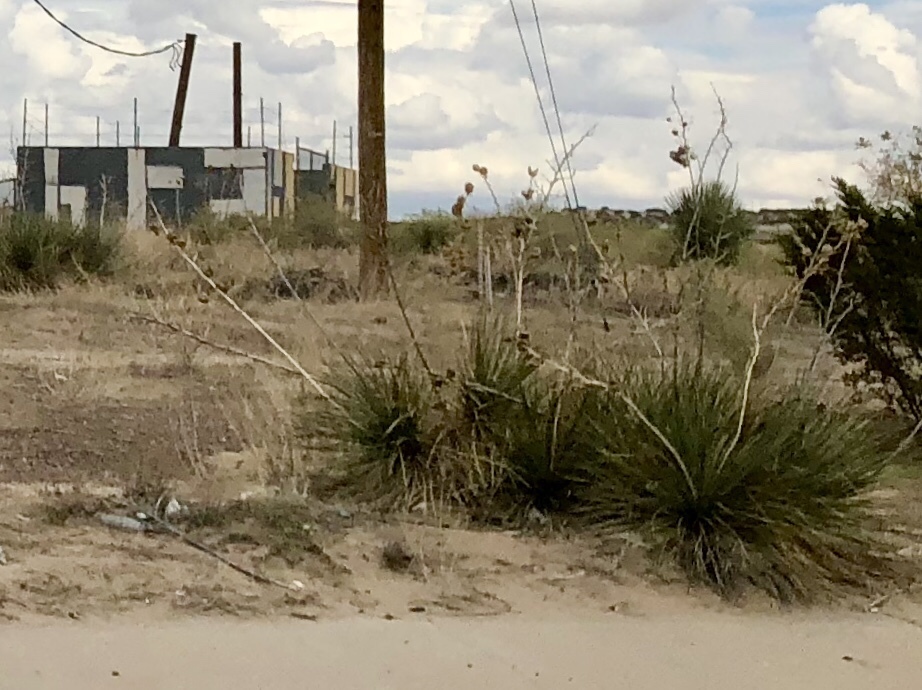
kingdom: Plantae
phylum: Tracheophyta
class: Liliopsida
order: Asparagales
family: Asparagaceae
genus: Yucca
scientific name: Yucca elata
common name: Palmella
